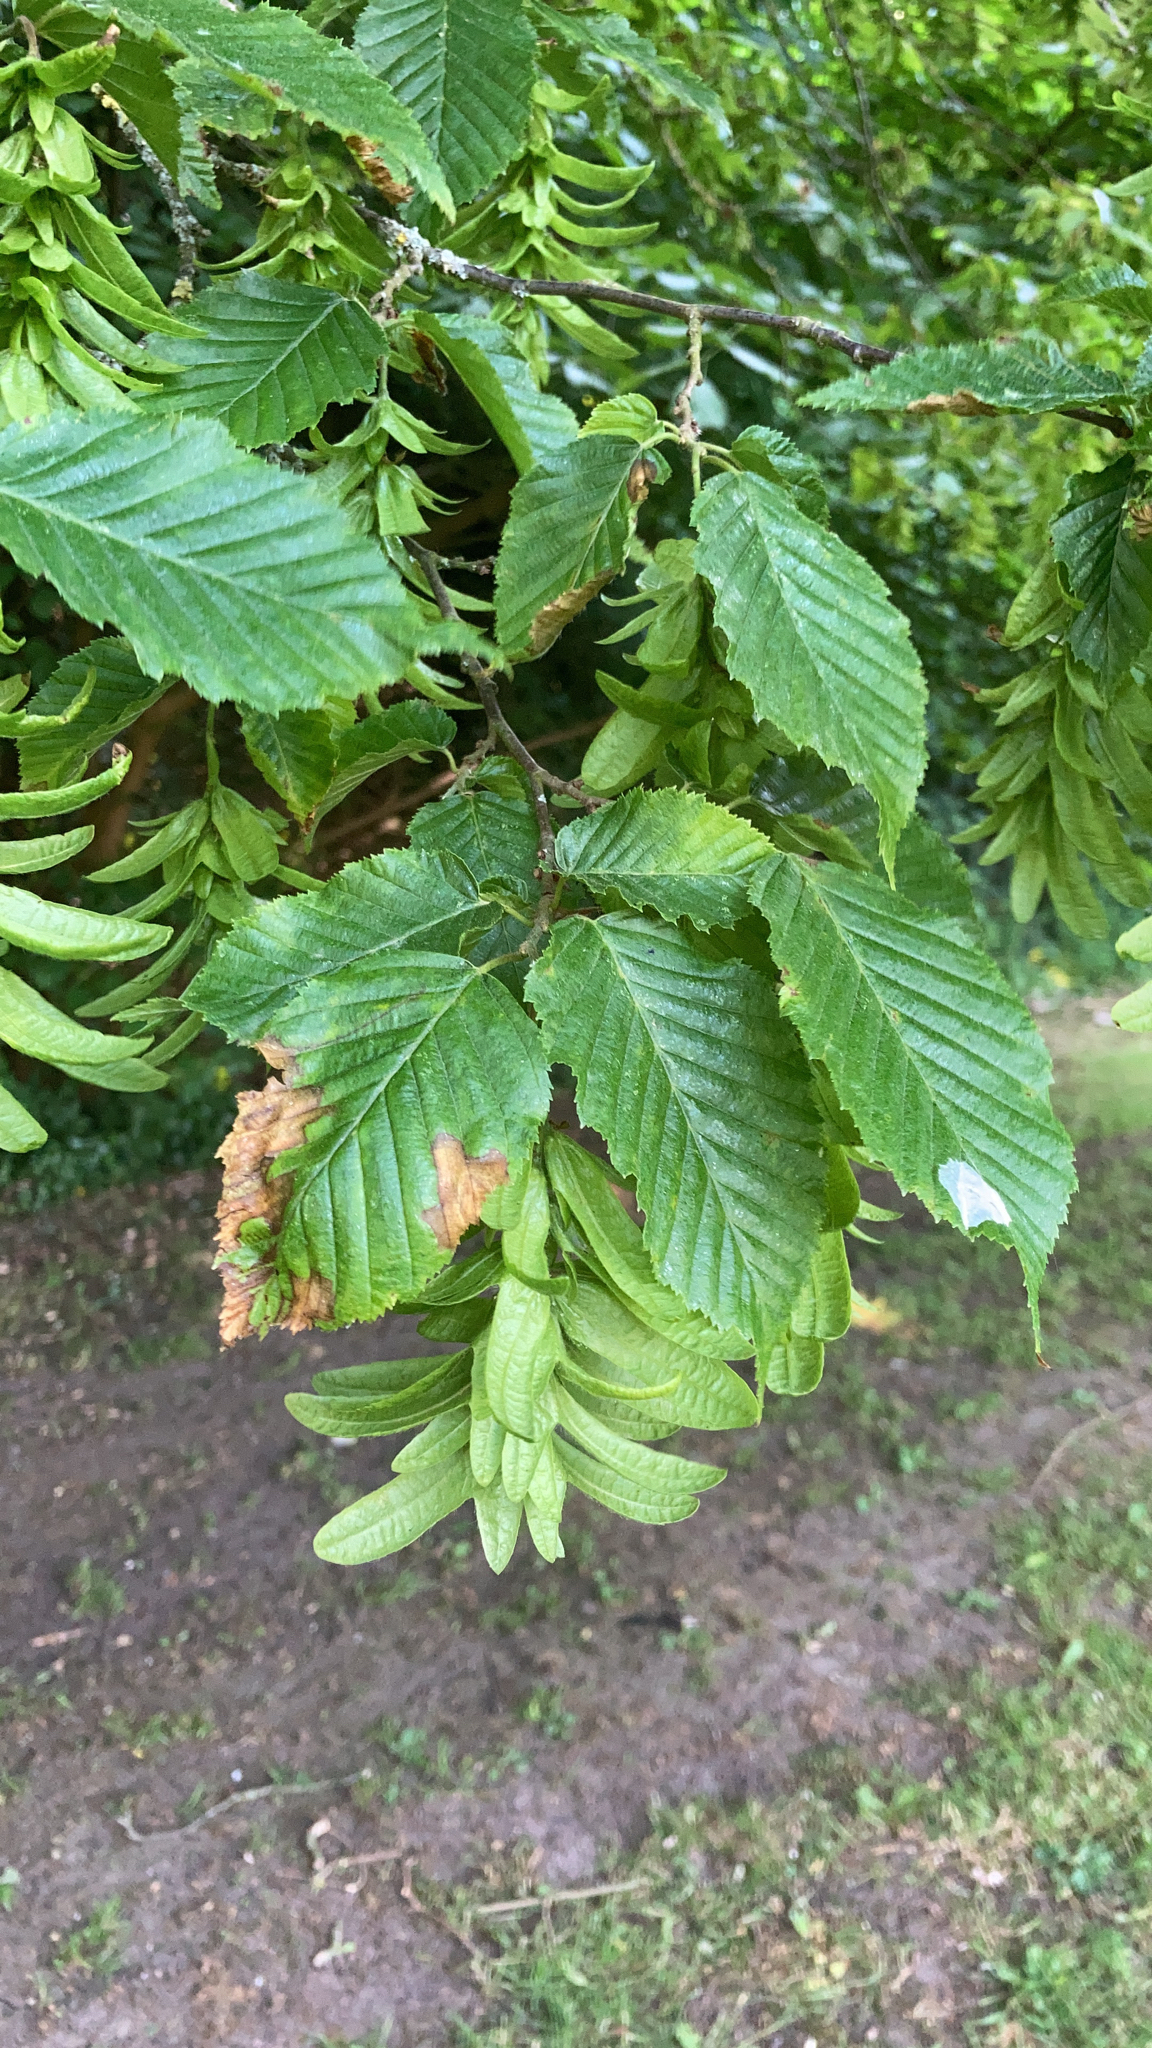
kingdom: Plantae
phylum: Tracheophyta
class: Magnoliopsida
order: Fagales
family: Betulaceae
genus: Carpinus
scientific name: Carpinus betulus
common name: Hornbeam
